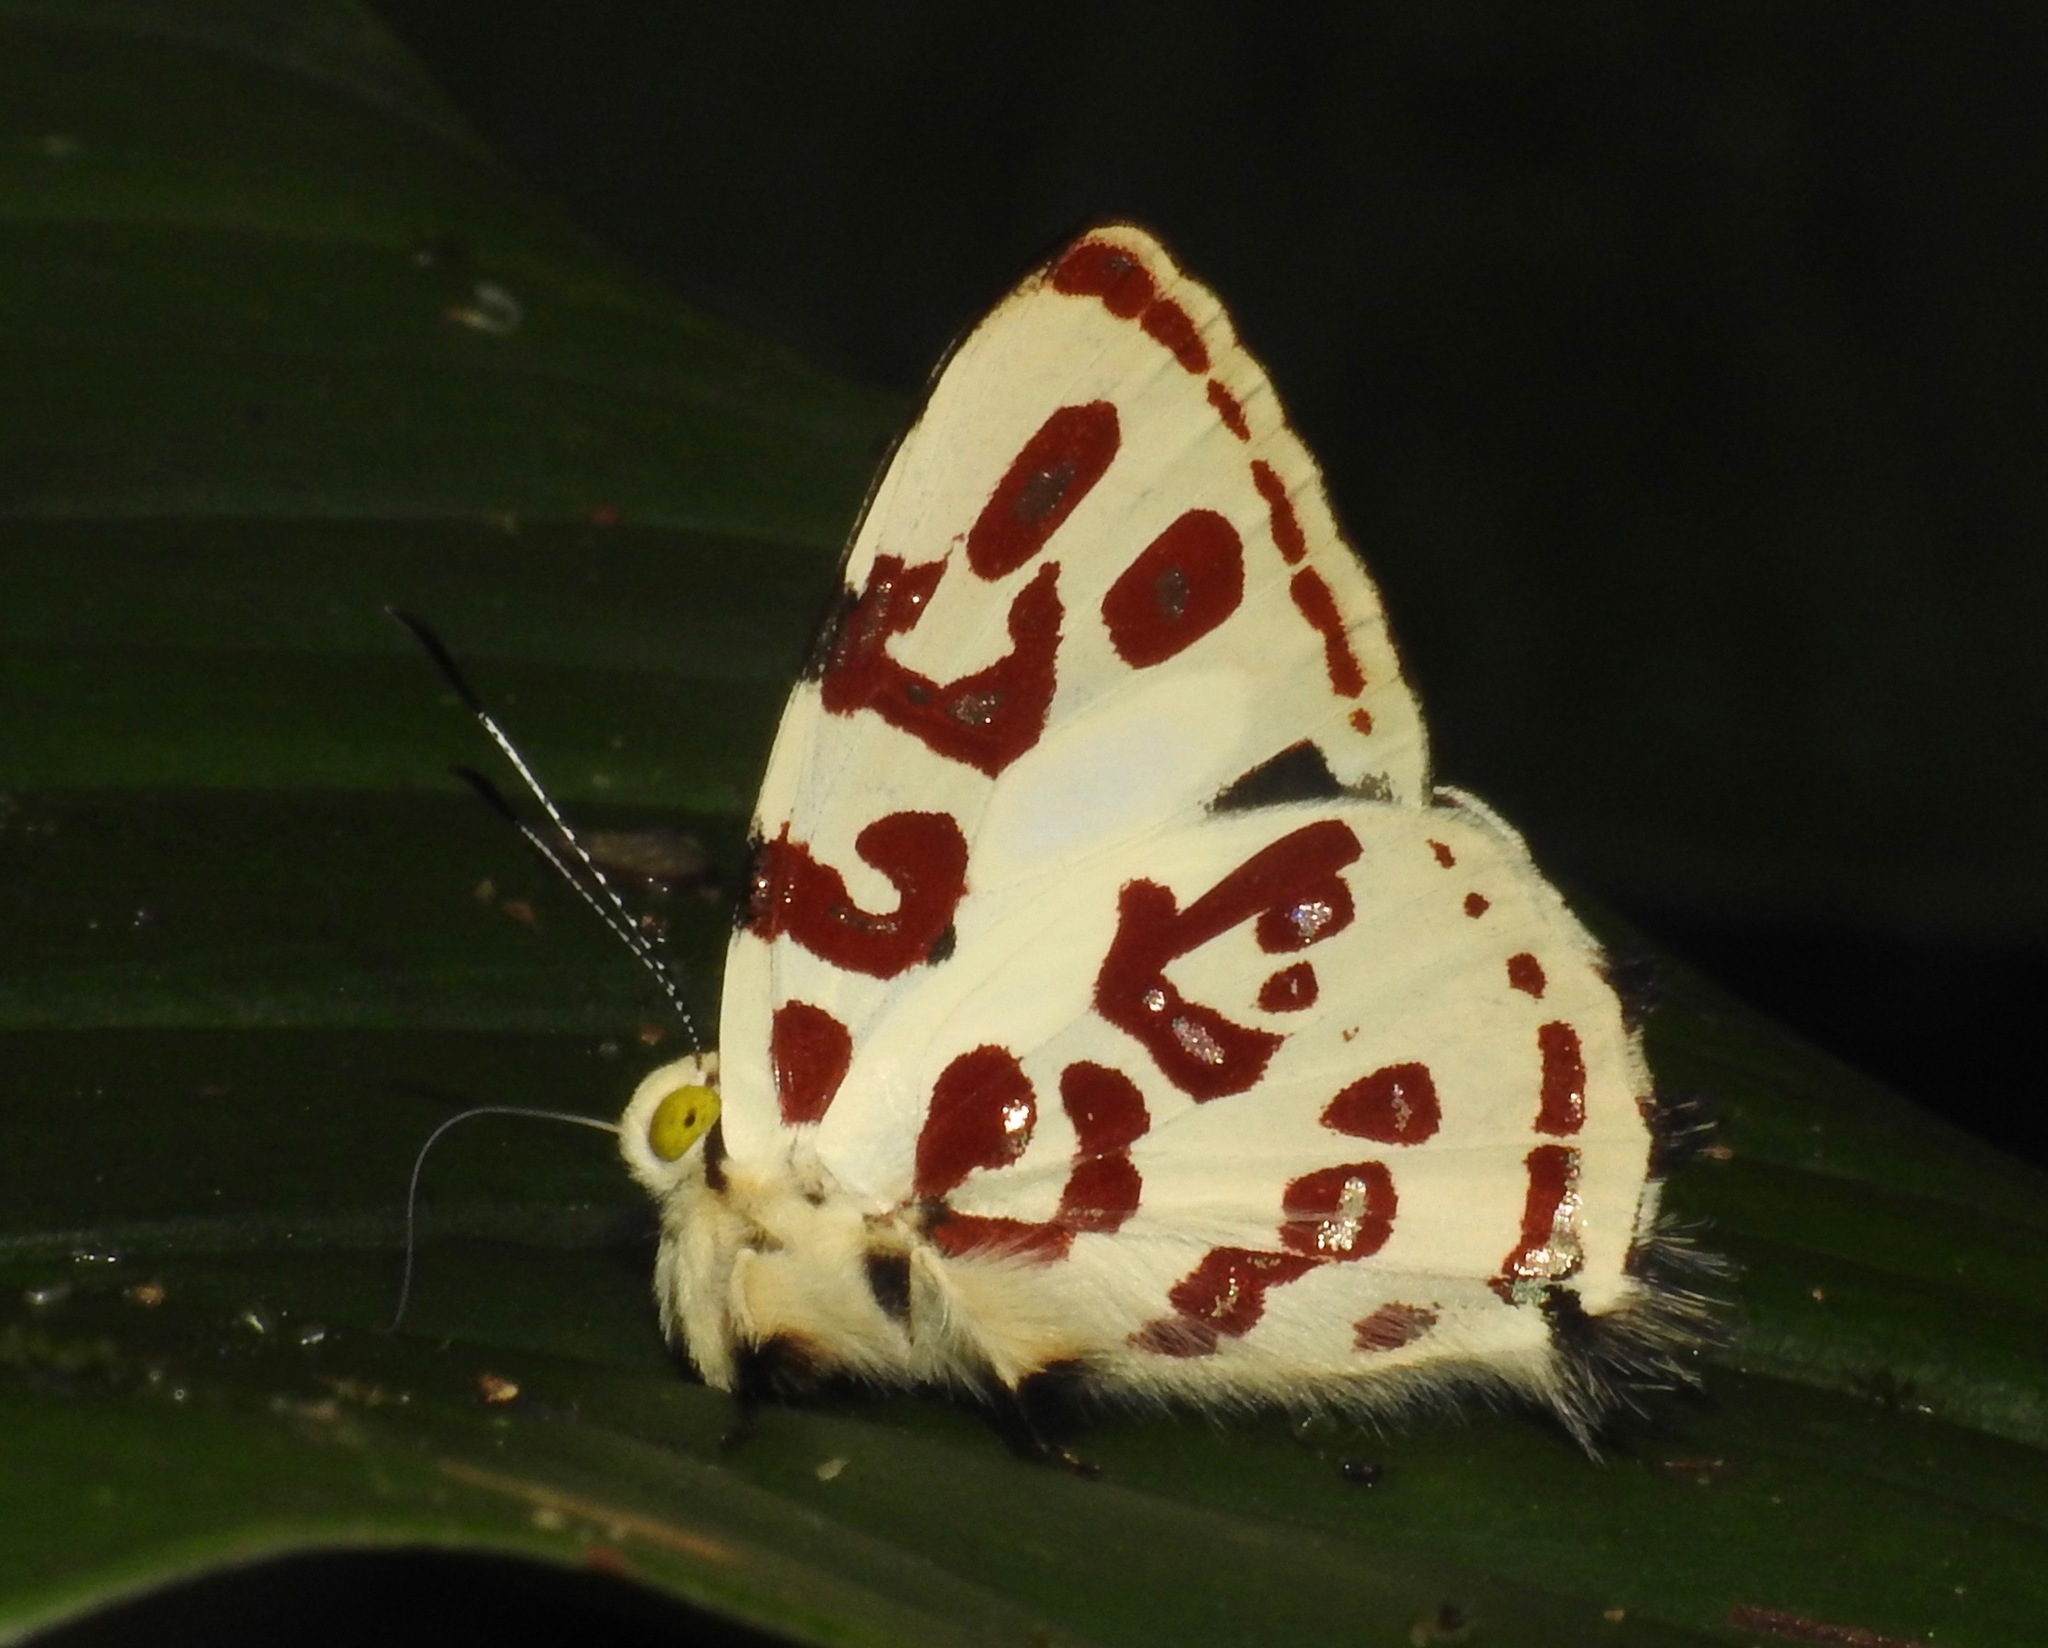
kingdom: Animalia
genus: Anteros
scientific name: Anteros kupris
